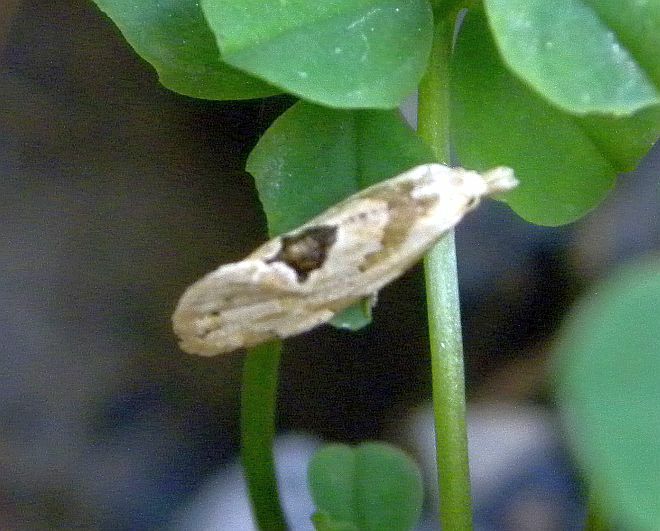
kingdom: Animalia
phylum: Arthropoda
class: Insecta
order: Lepidoptera
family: Tortricidae
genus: Aethes
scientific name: Aethes angustana
